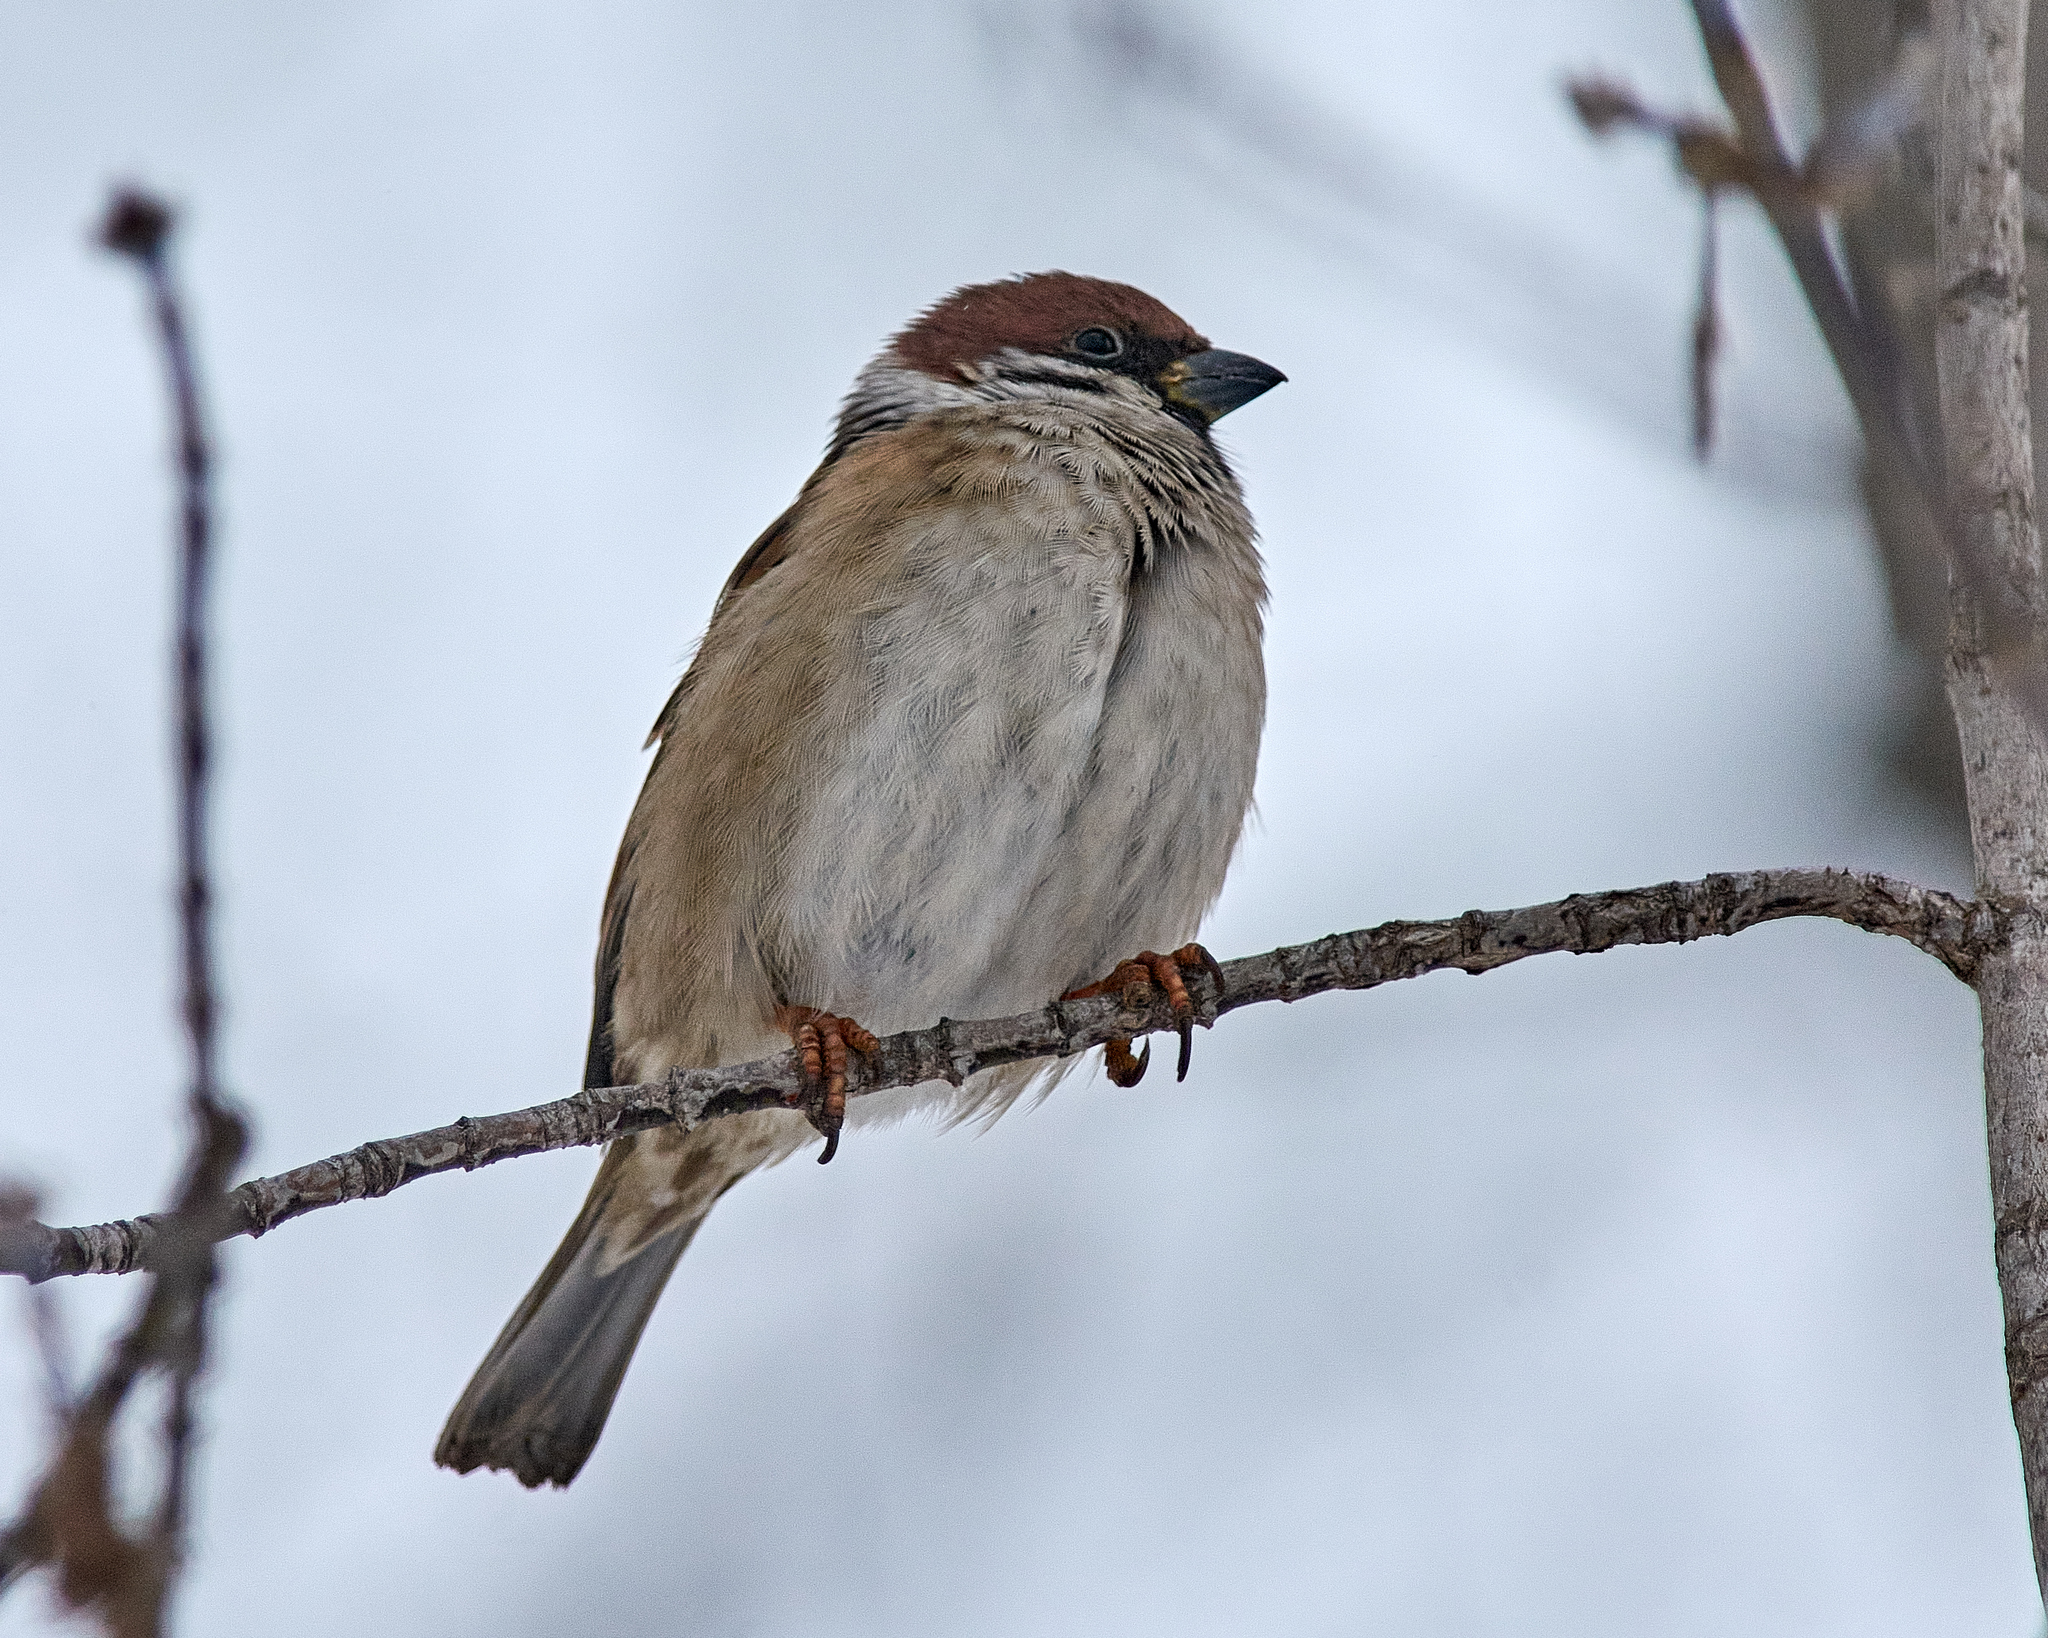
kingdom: Animalia
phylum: Chordata
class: Aves
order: Passeriformes
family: Passeridae
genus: Passer
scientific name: Passer montanus
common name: Eurasian tree sparrow
